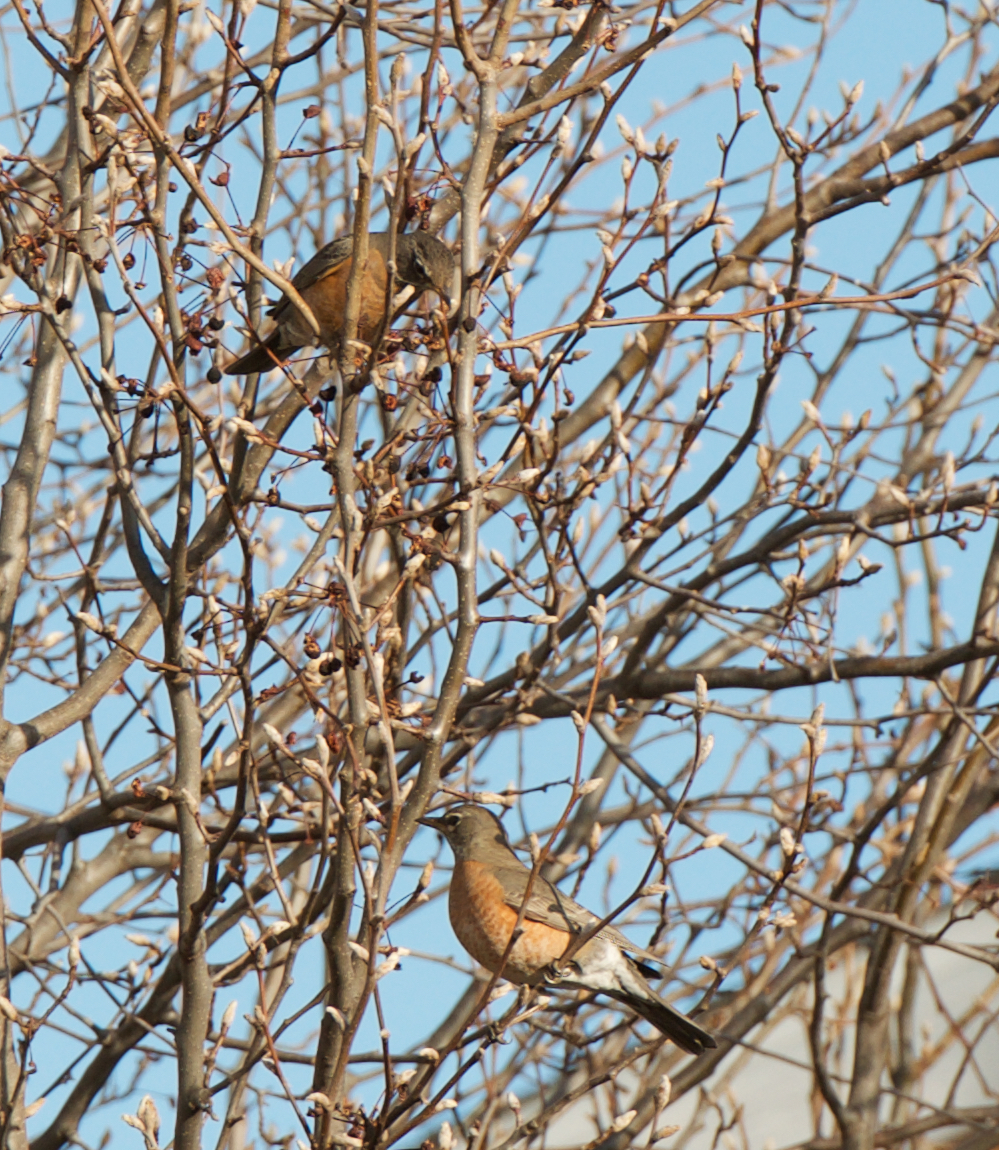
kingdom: Animalia
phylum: Chordata
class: Aves
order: Passeriformes
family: Turdidae
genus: Turdus
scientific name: Turdus migratorius
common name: American robin
